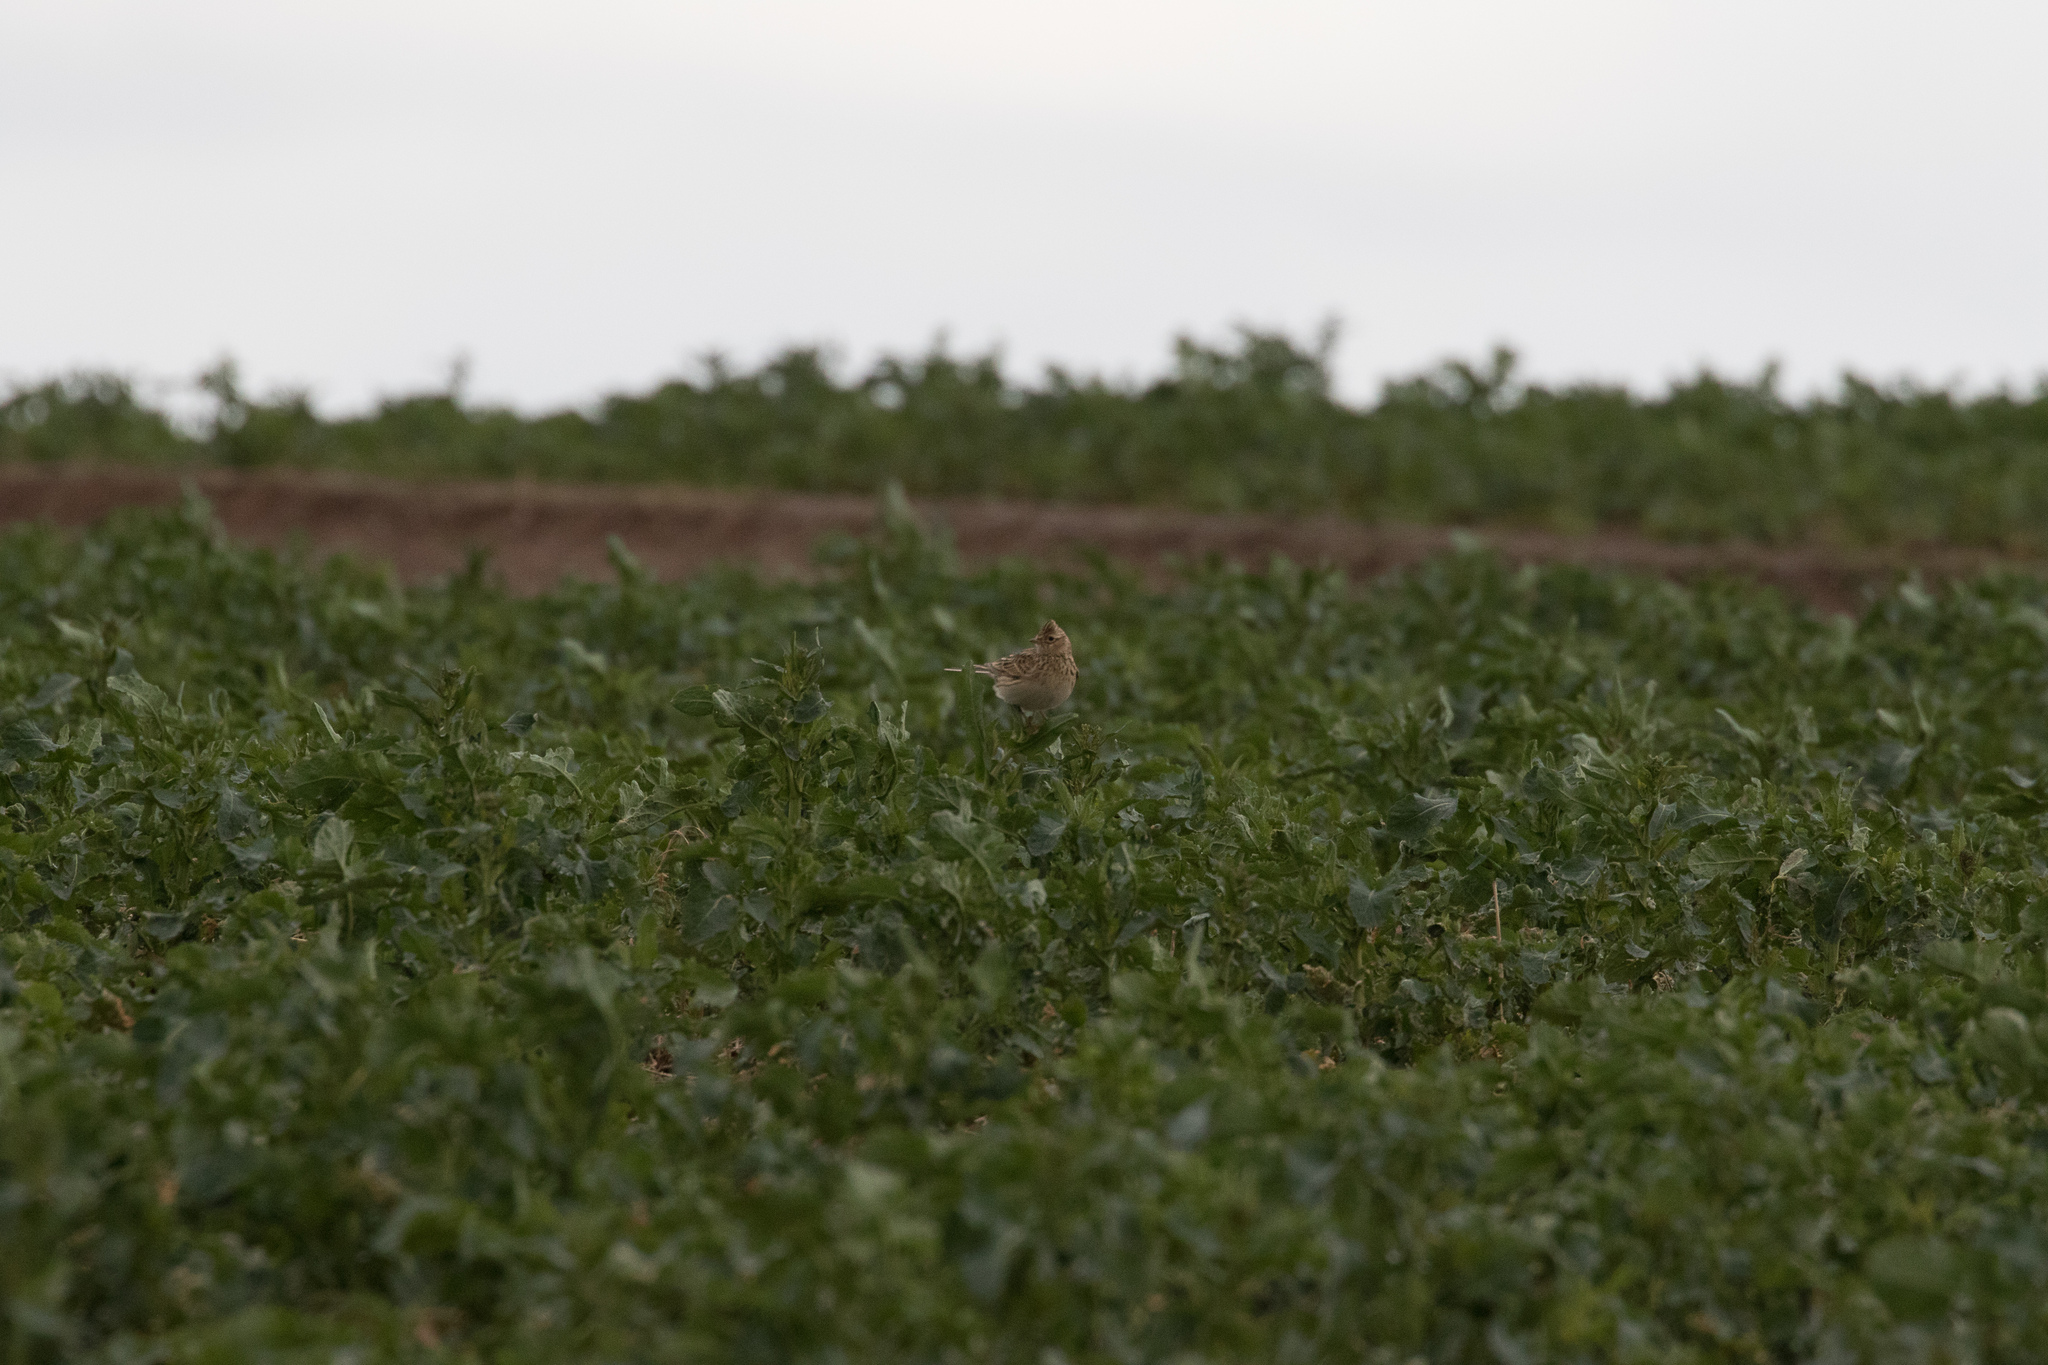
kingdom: Animalia
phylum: Chordata
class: Aves
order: Passeriformes
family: Alaudidae
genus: Alauda
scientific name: Alauda arvensis
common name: Eurasian skylark
